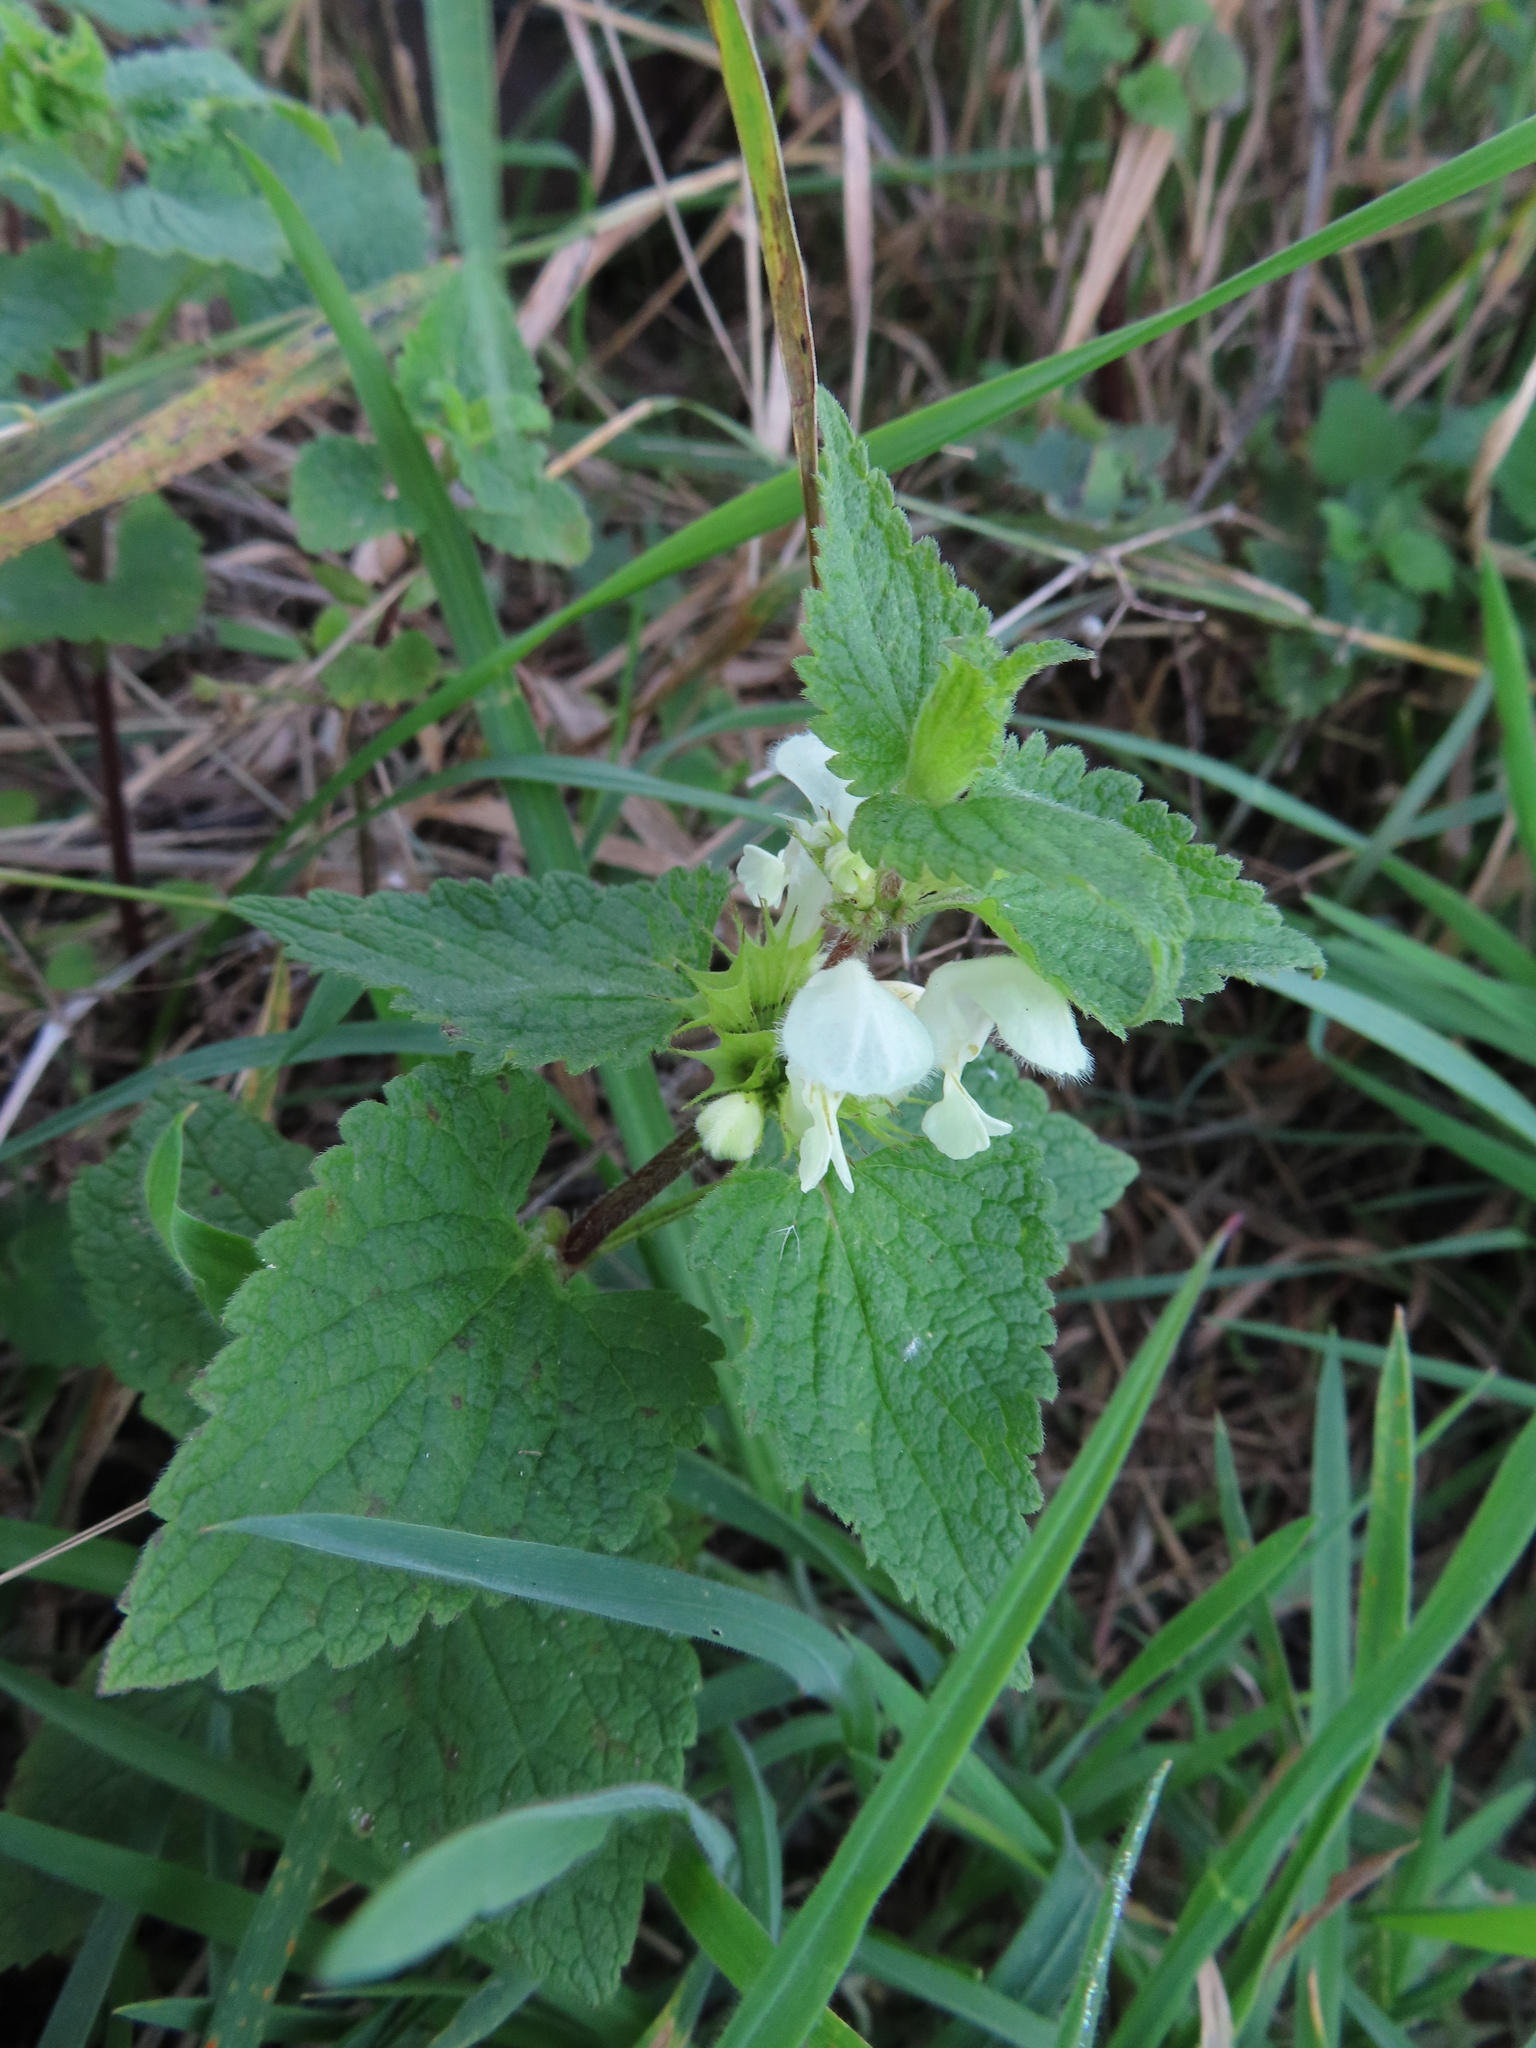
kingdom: Plantae
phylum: Tracheophyta
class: Magnoliopsida
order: Lamiales
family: Lamiaceae
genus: Lamium
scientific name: Lamium album
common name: White dead-nettle
